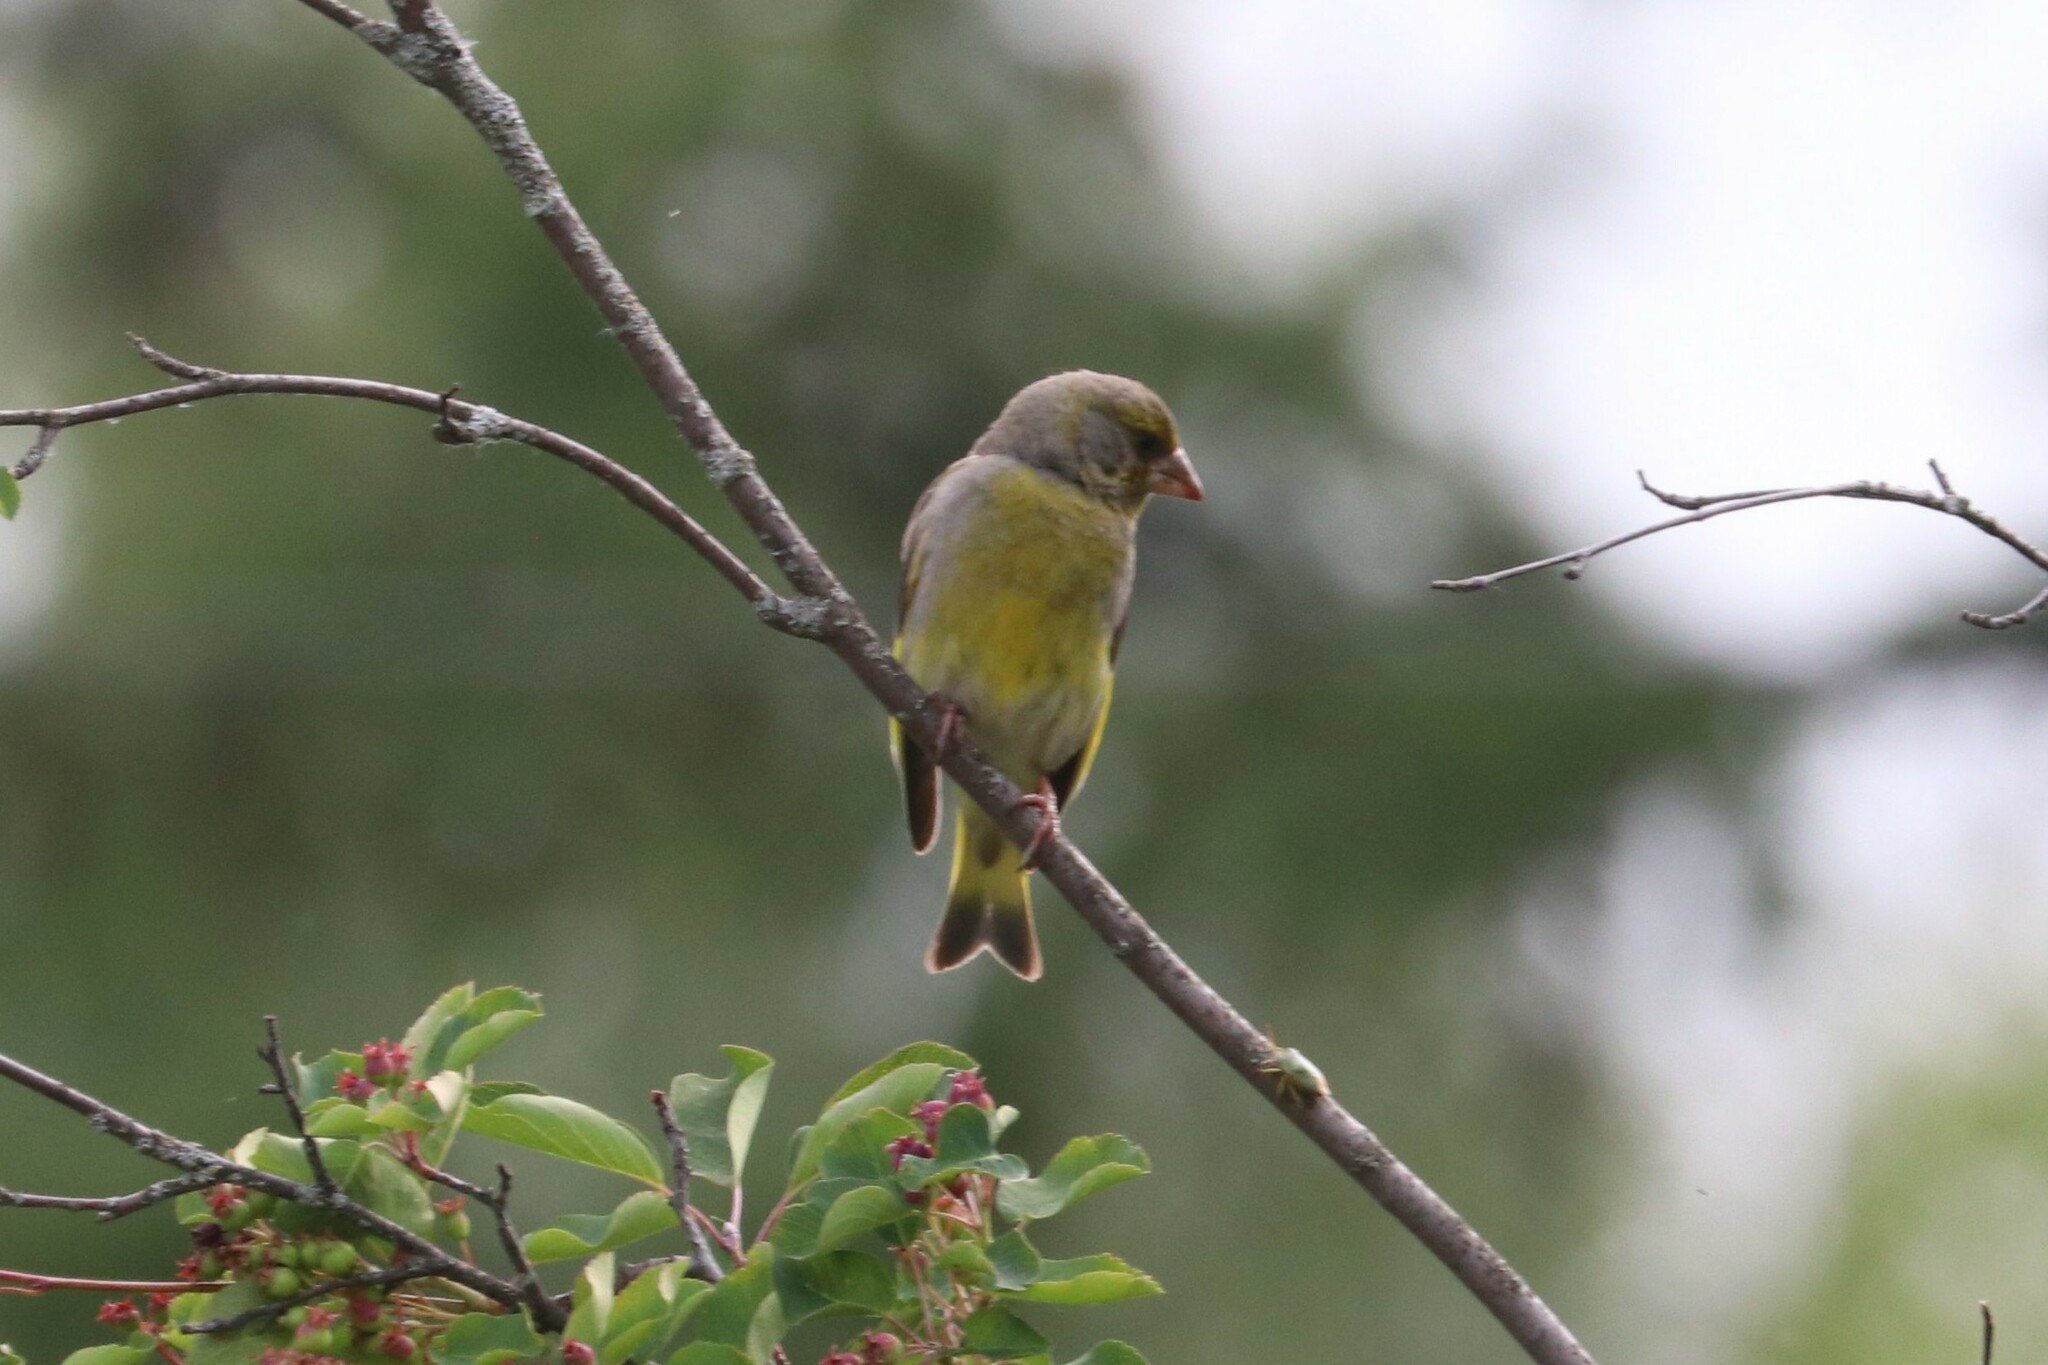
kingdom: Plantae
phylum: Tracheophyta
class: Liliopsida
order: Poales
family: Poaceae
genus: Chloris
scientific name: Chloris chloris
